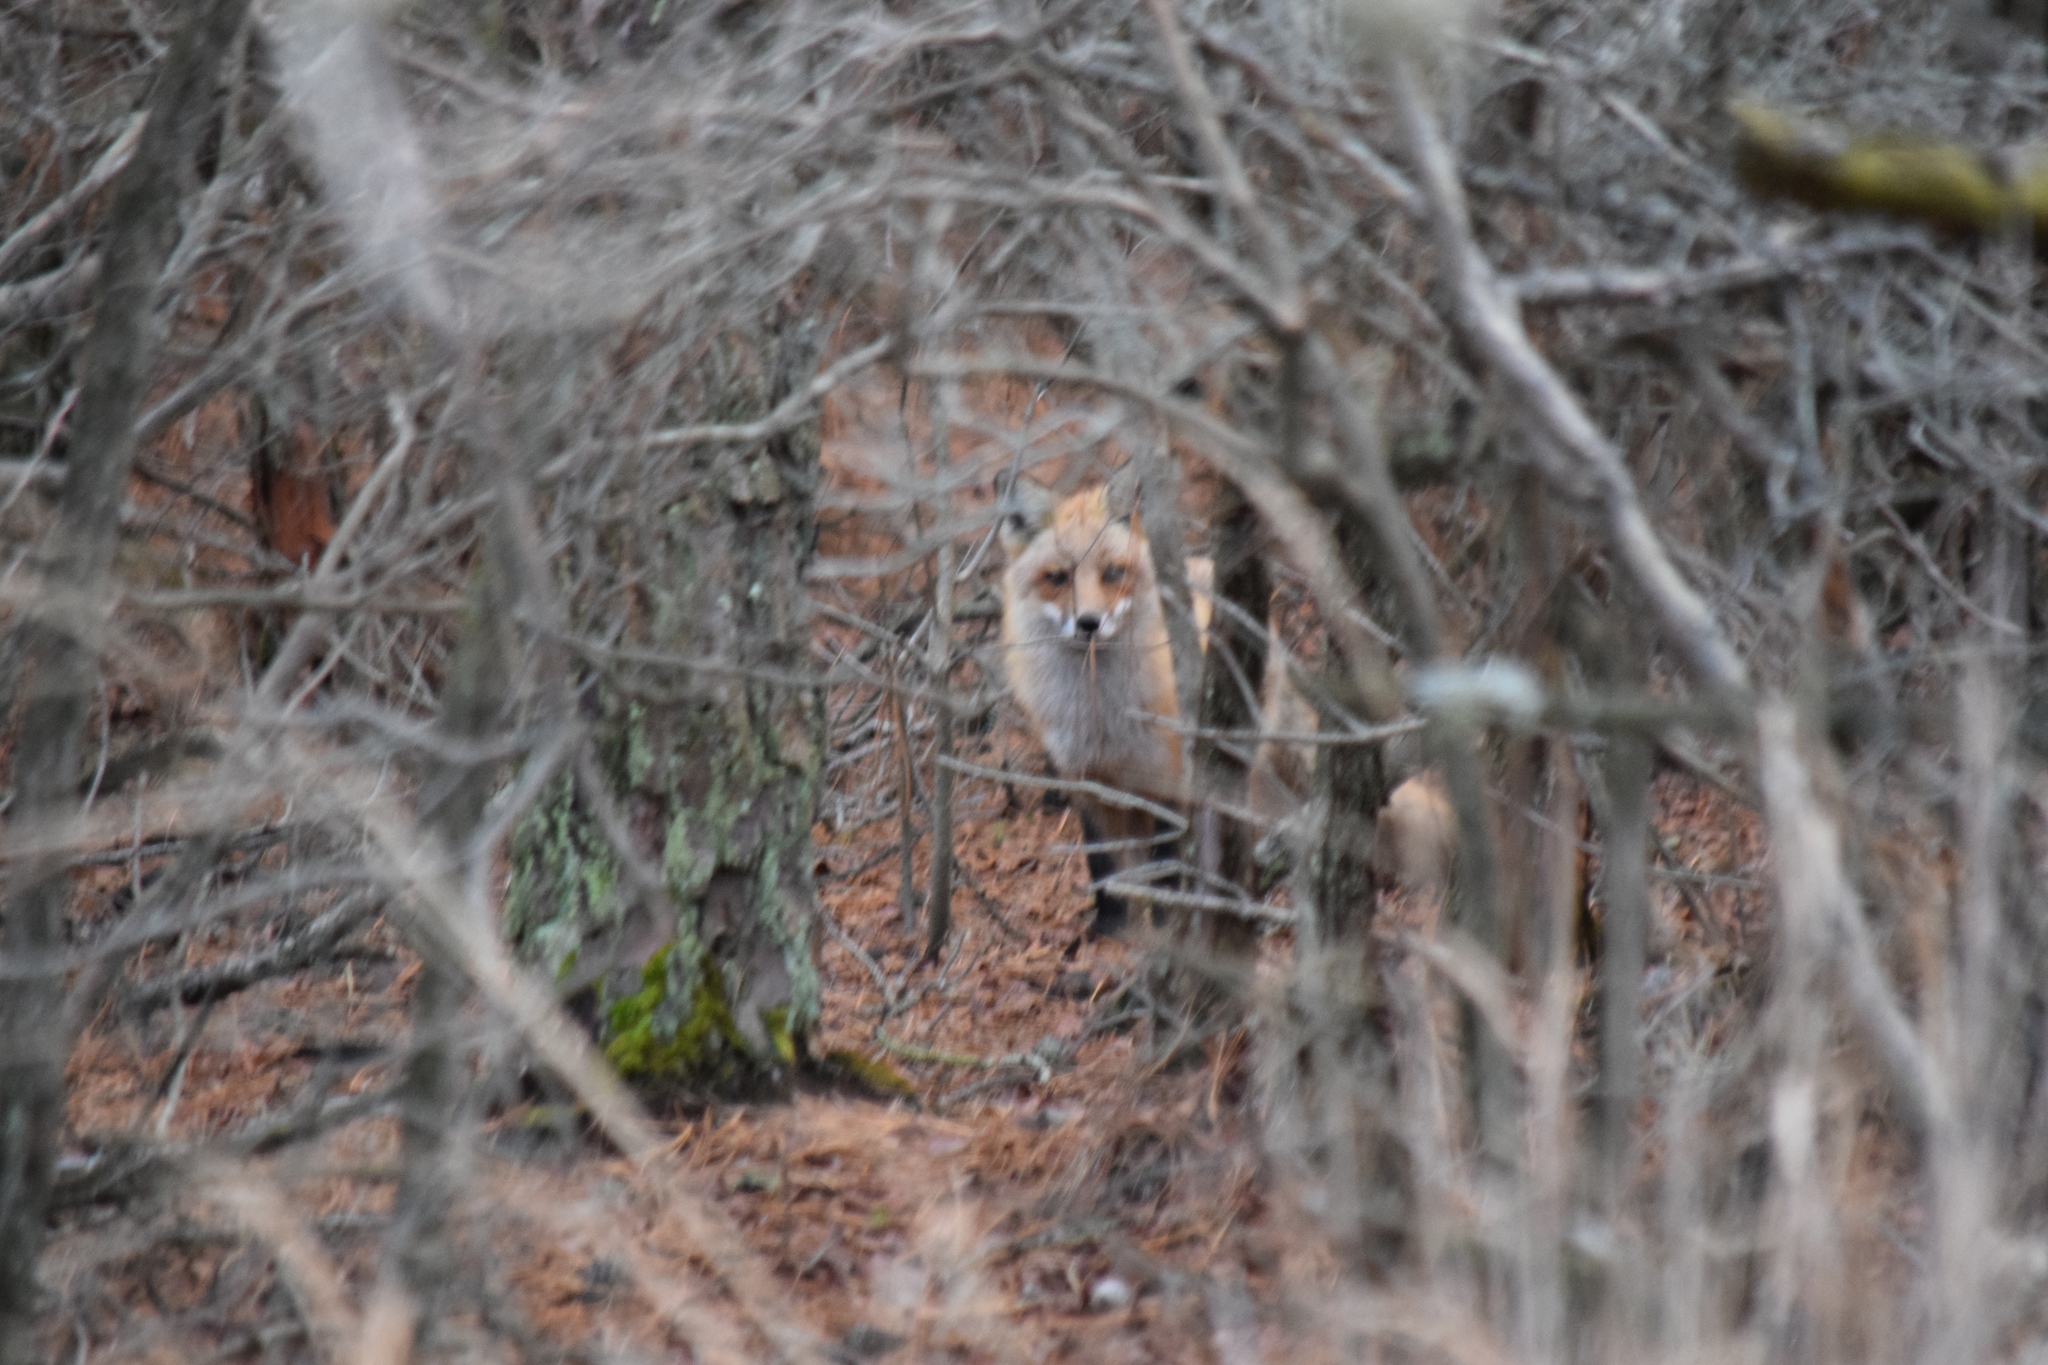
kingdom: Animalia
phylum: Chordata
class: Mammalia
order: Carnivora
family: Canidae
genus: Vulpes
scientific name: Vulpes vulpes
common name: Red fox
